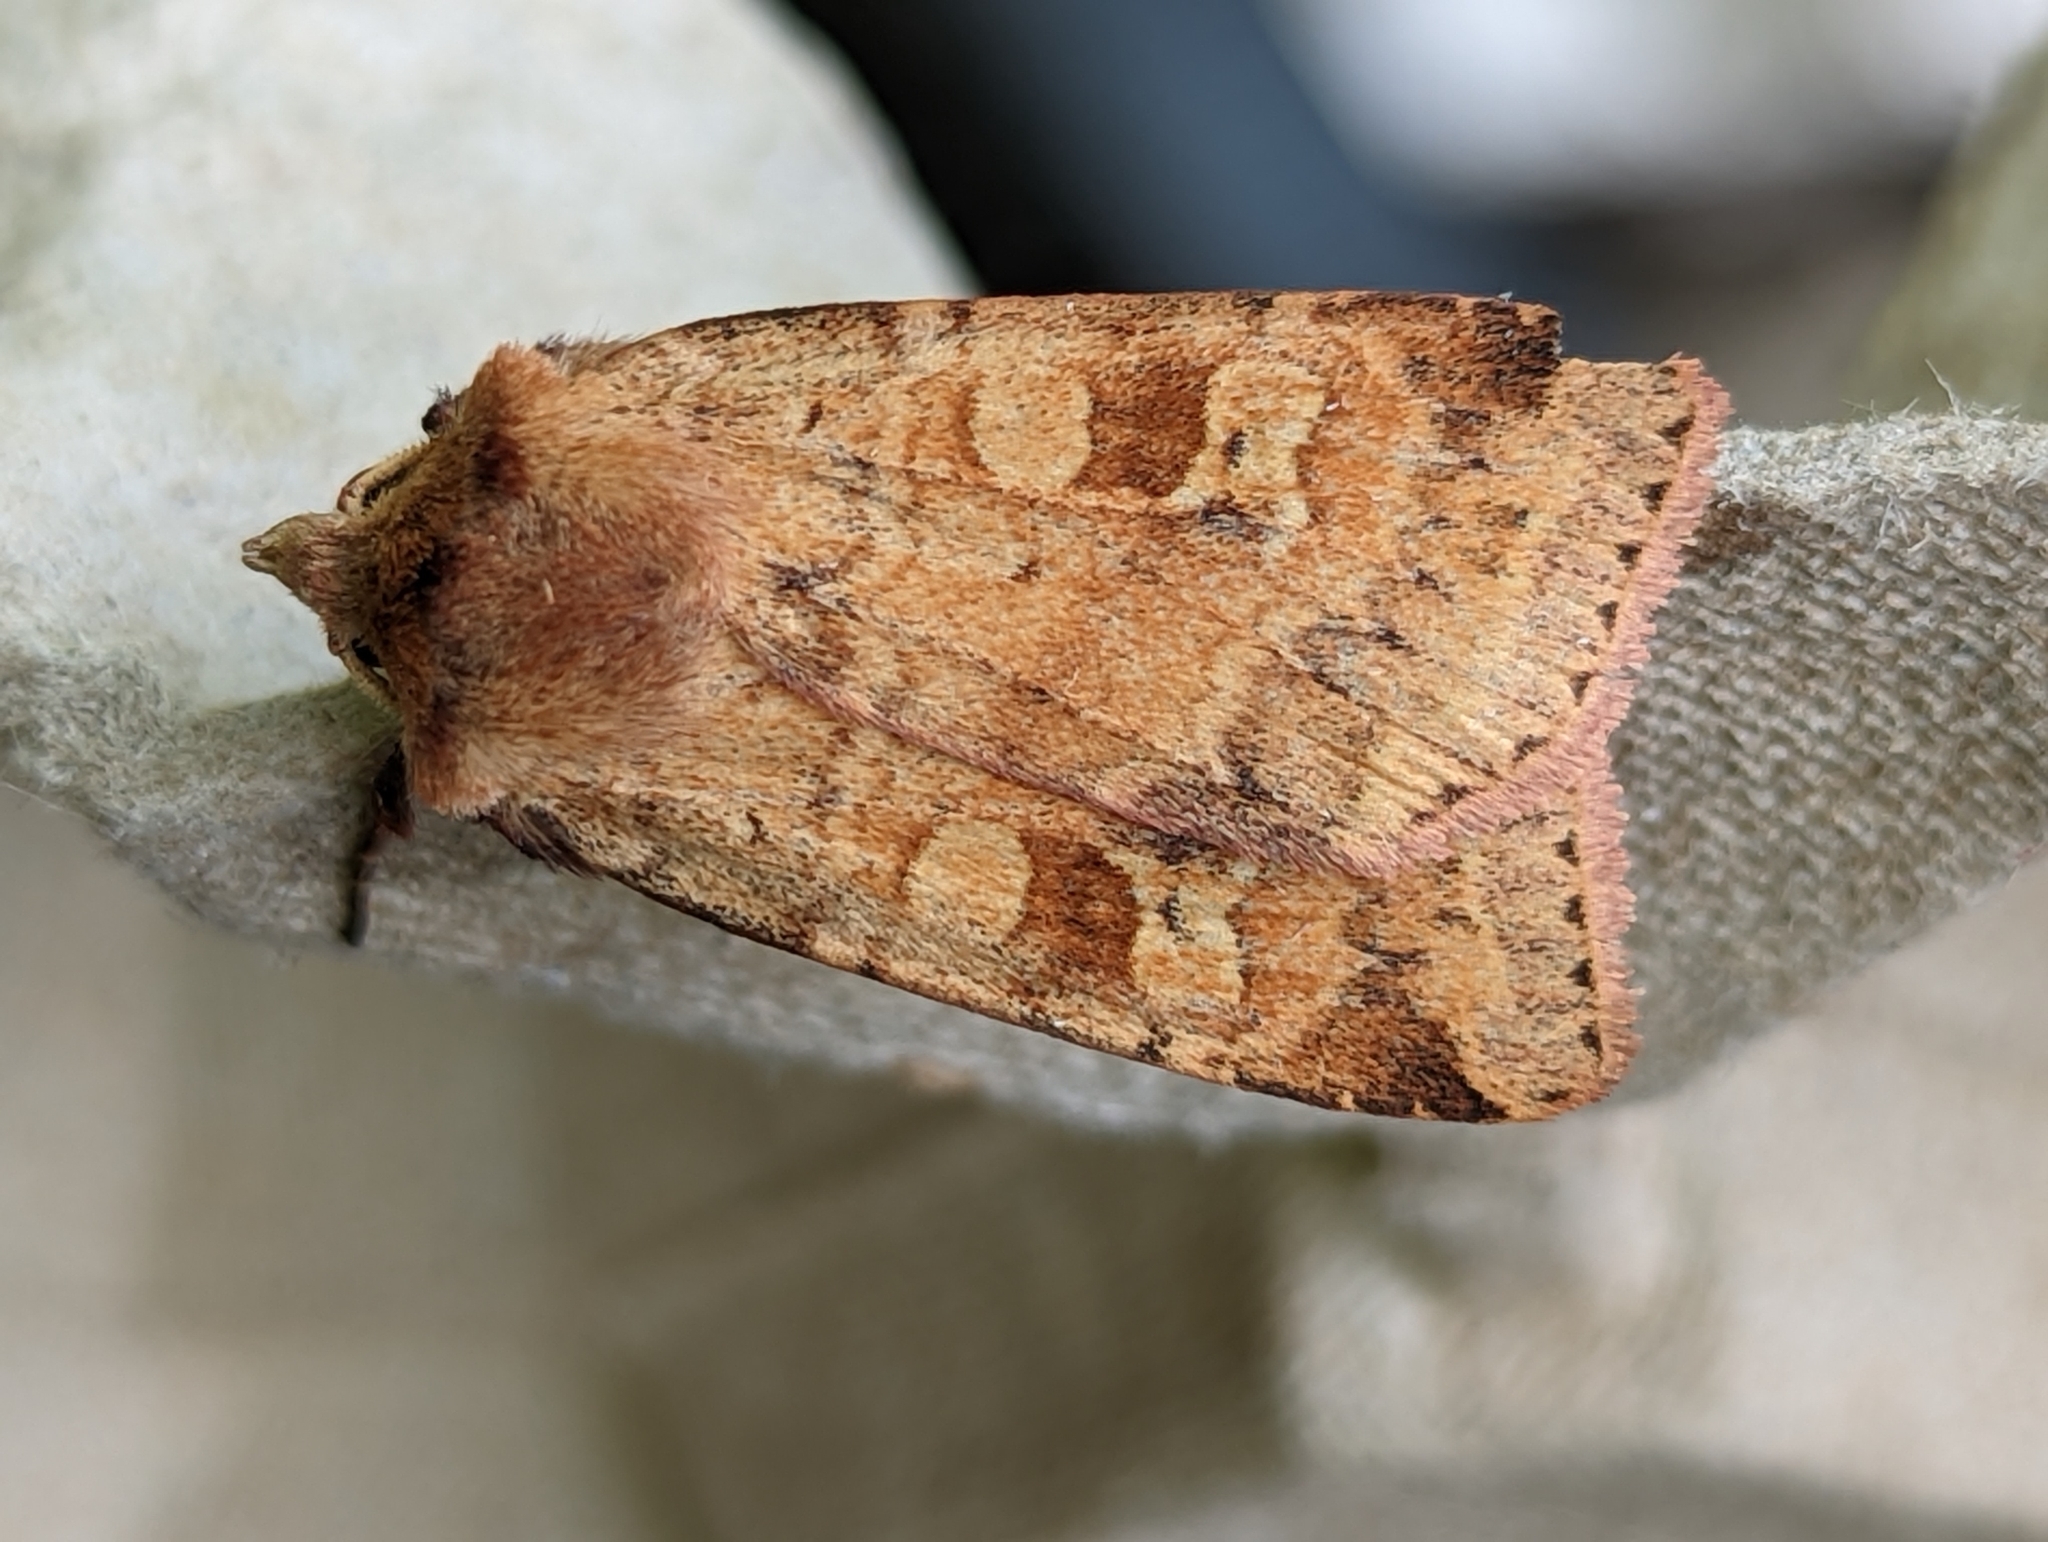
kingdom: Animalia
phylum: Arthropoda
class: Insecta
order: Lepidoptera
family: Noctuidae
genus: Diarsia
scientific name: Diarsia mendica
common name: Ingrailed clay
